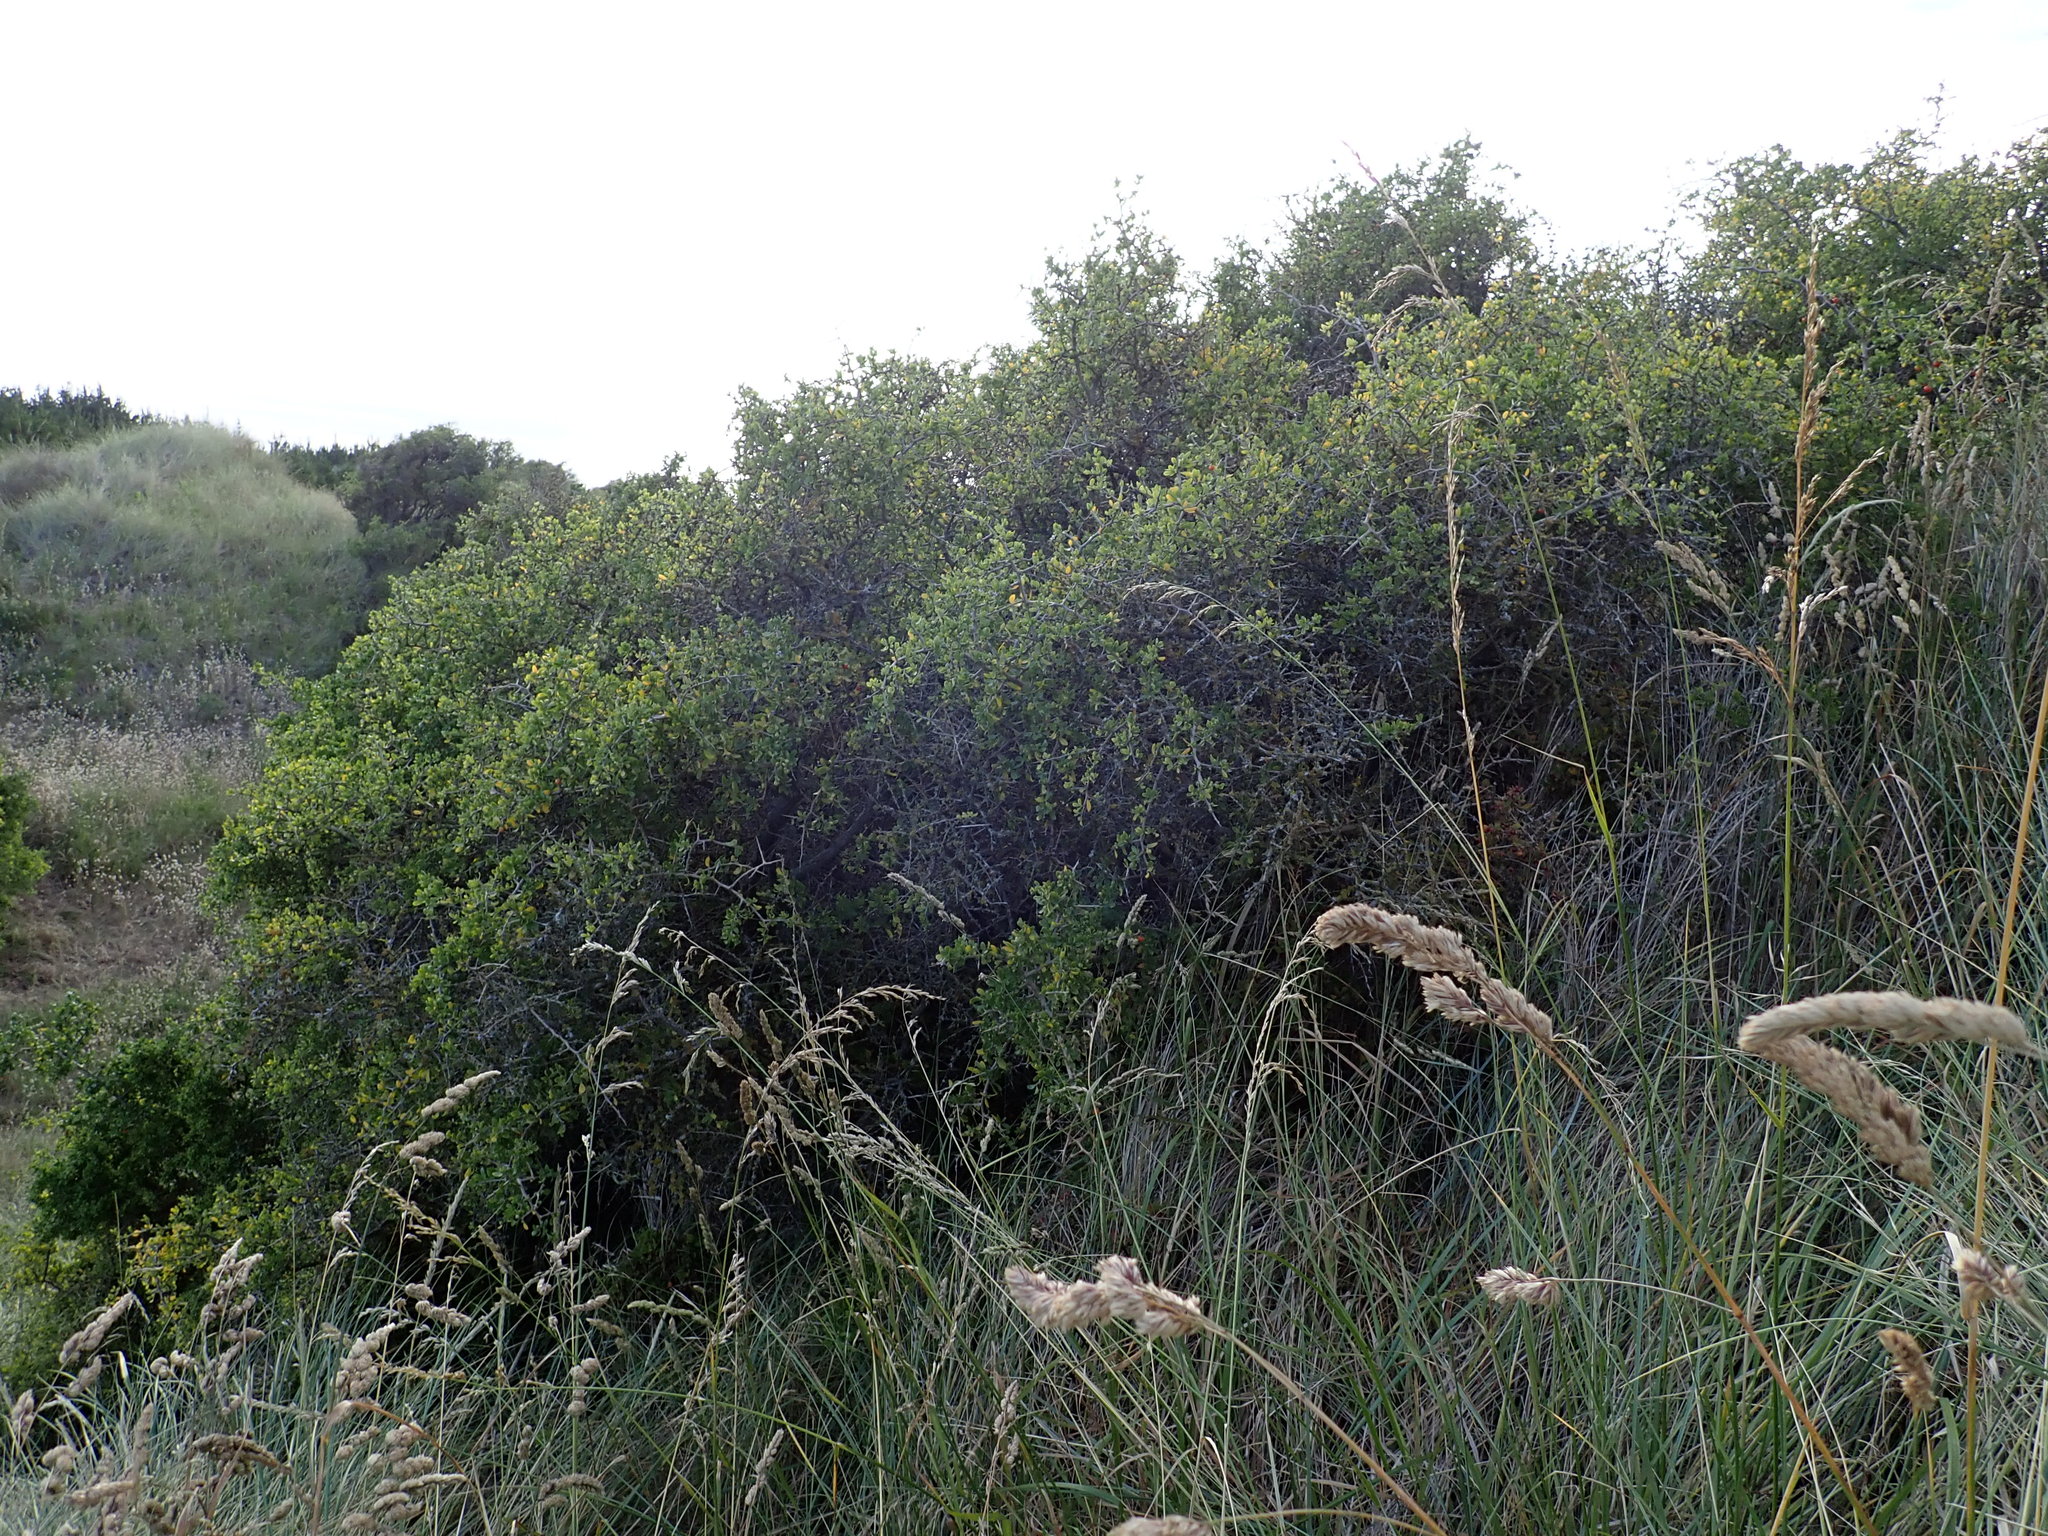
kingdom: Plantae
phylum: Tracheophyta
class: Magnoliopsida
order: Caryophyllales
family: Aizoaceae
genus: Tetragonia
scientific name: Tetragonia implexicoma
